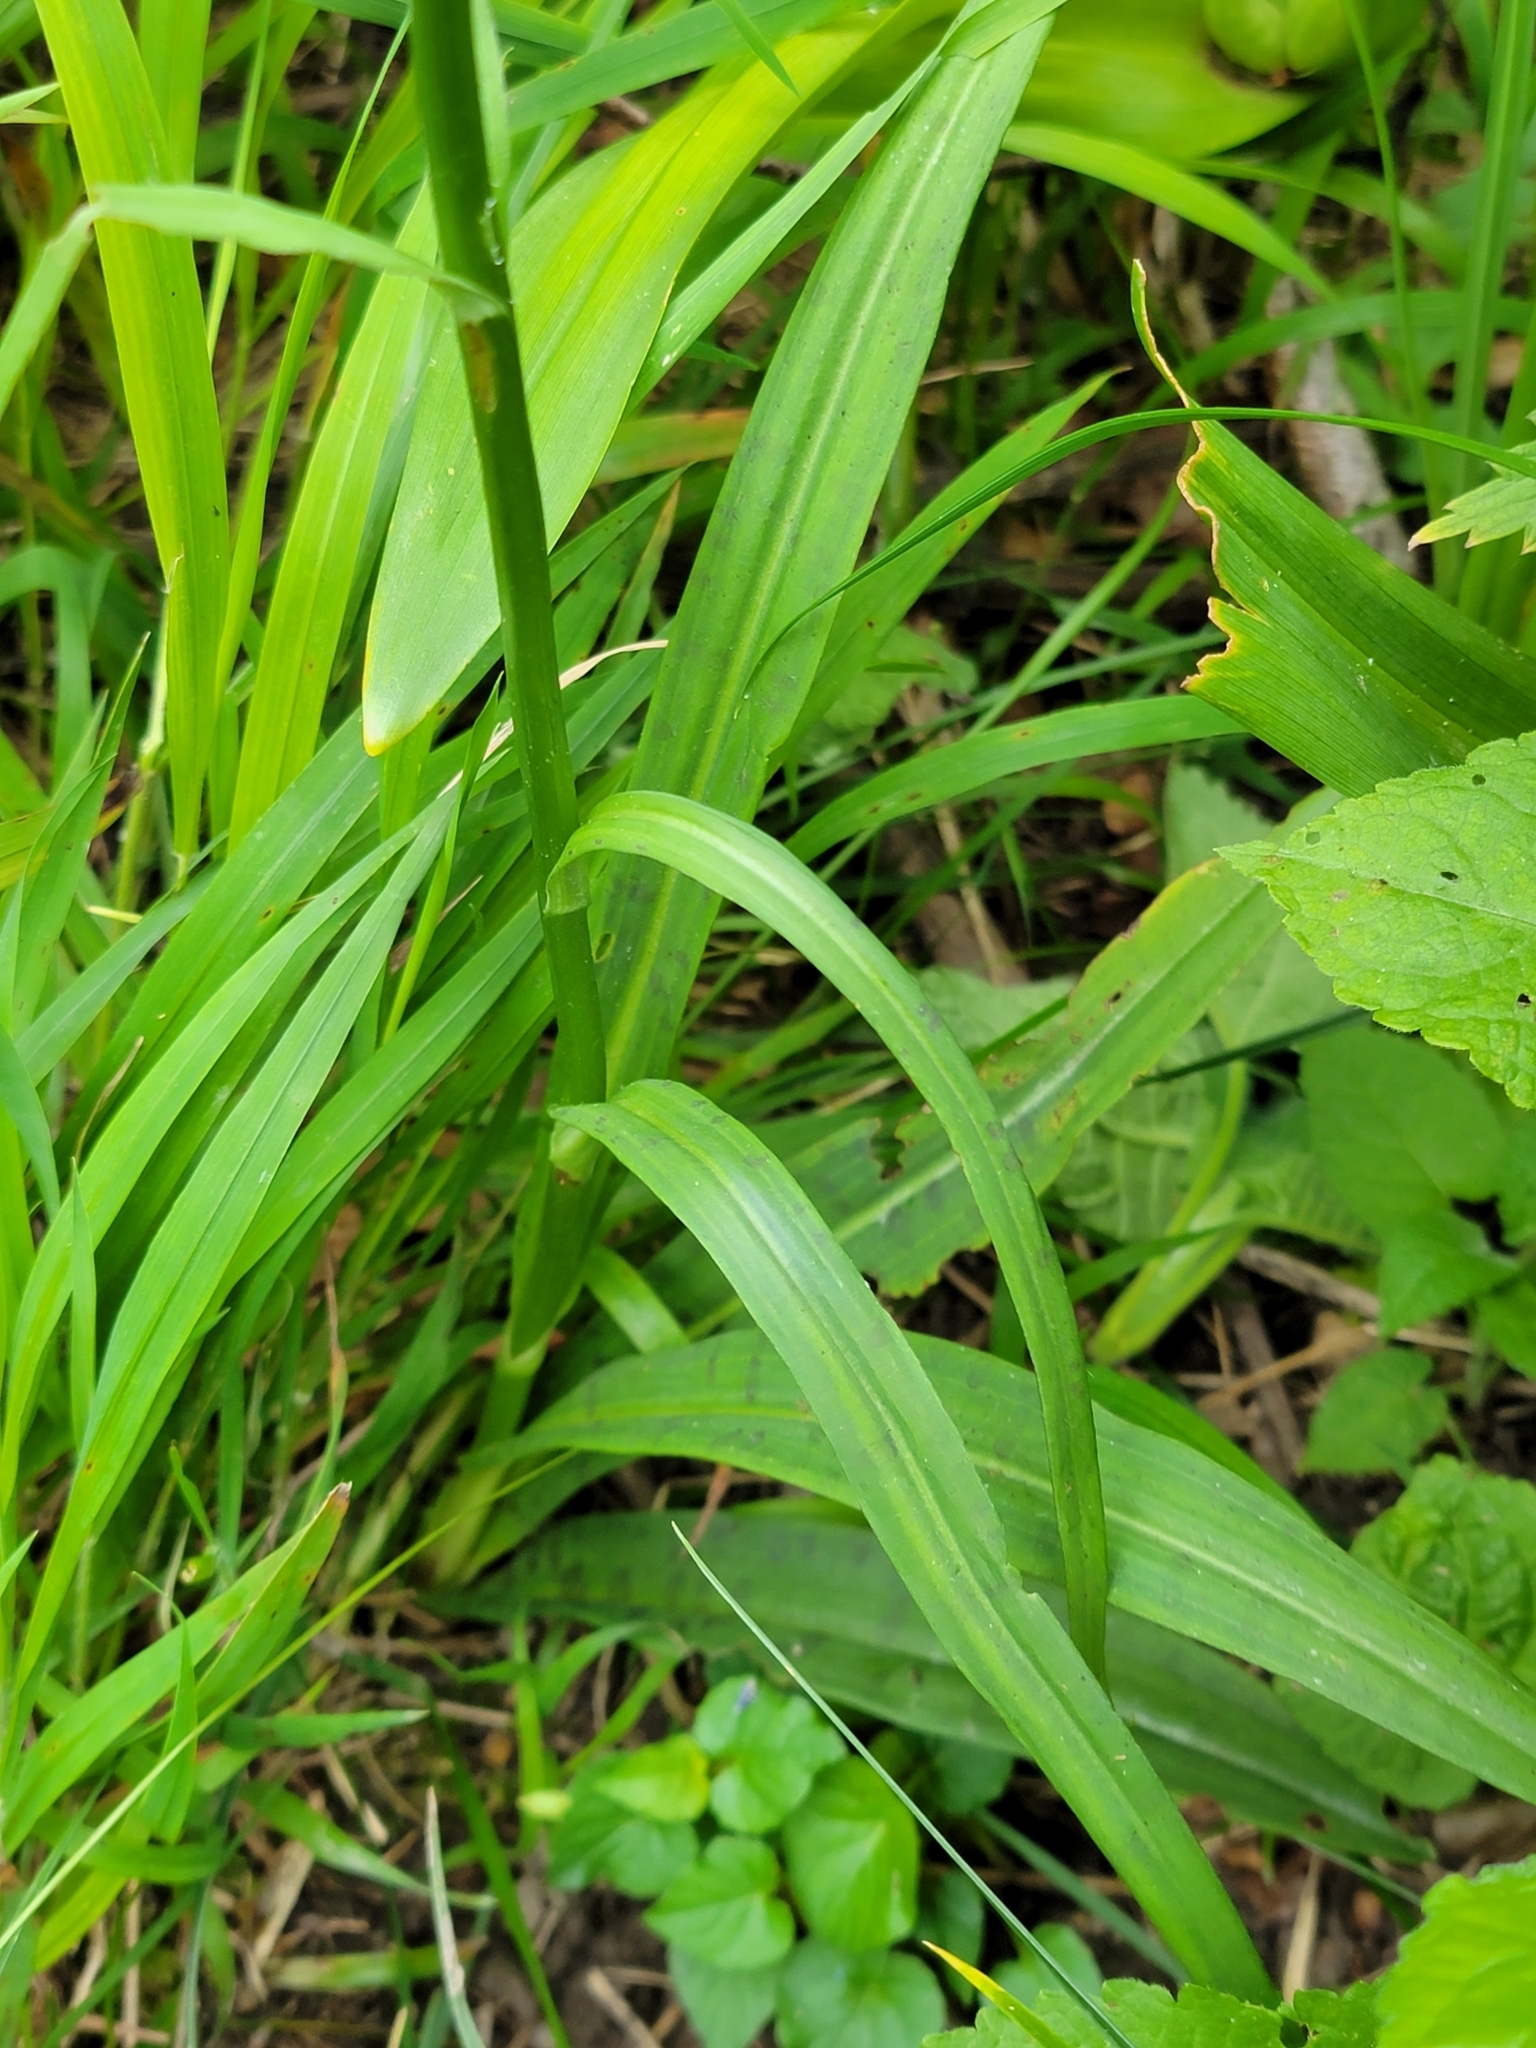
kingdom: Plantae
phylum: Tracheophyta
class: Liliopsida
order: Asparagales
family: Orchidaceae
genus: Dactylorhiza
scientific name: Dactylorhiza maculata
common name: Heath spotted-orchid
